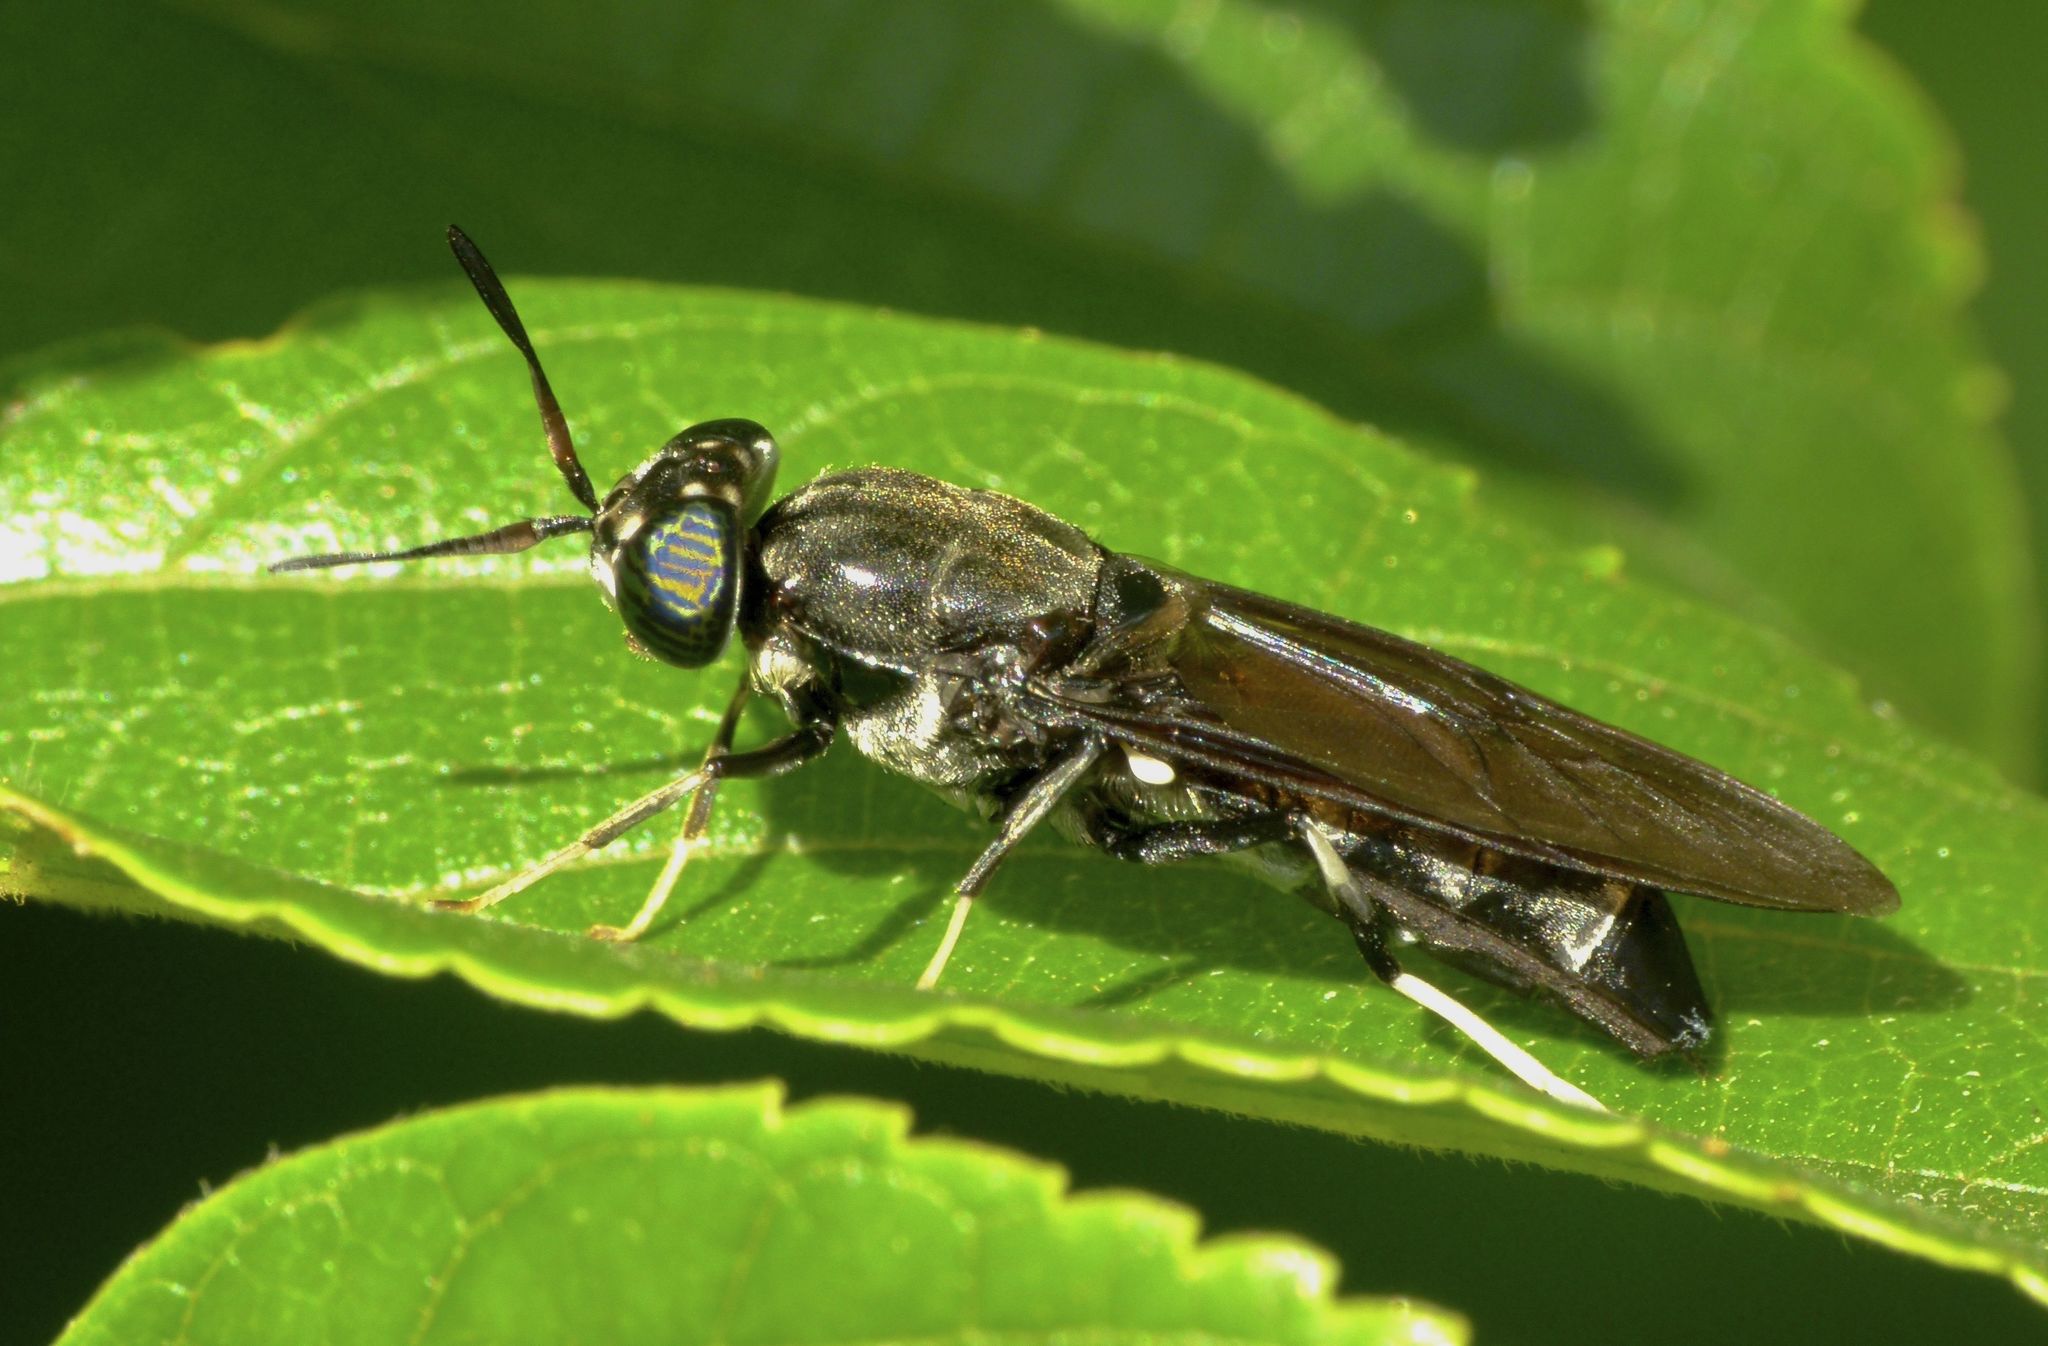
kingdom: Animalia
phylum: Arthropoda
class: Insecta
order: Diptera
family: Stratiomyidae
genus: Hermetia
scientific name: Hermetia illucens
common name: Black soldier fly
